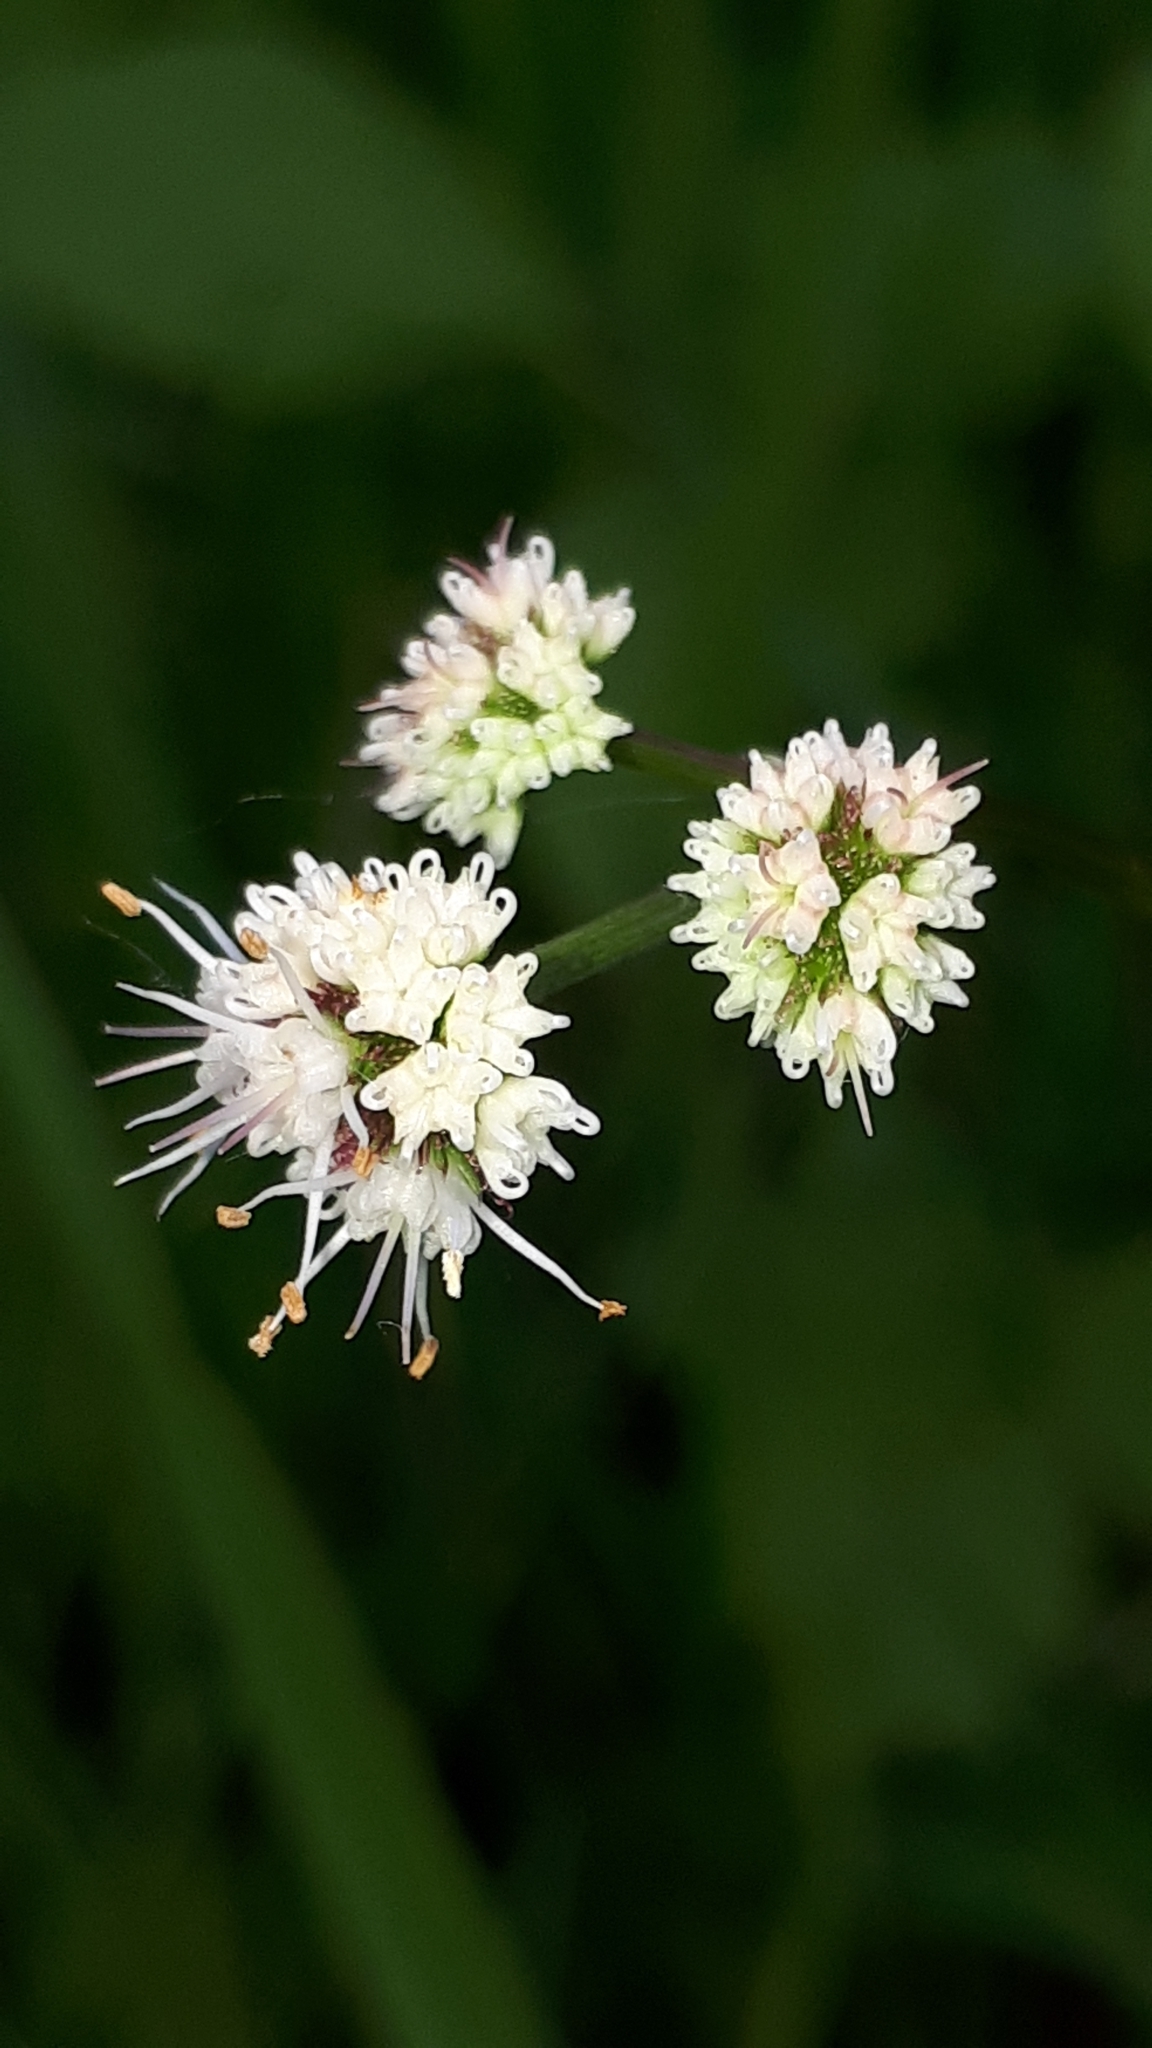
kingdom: Plantae
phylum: Tracheophyta
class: Magnoliopsida
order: Apiales
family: Apiaceae
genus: Sanicula
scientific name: Sanicula europaea
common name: Sanicle
